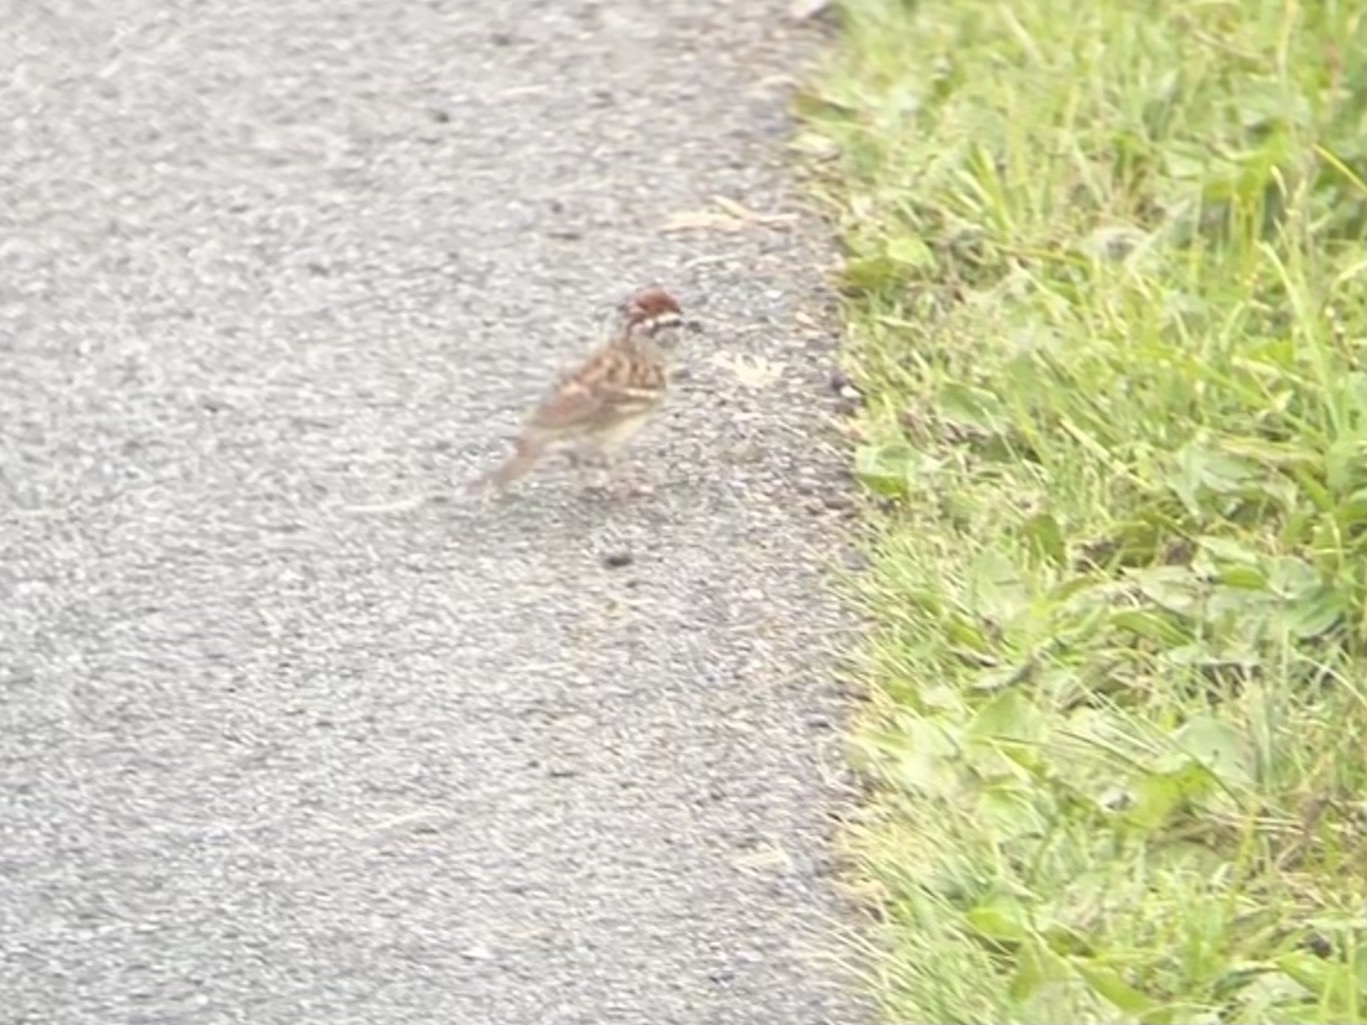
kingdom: Animalia
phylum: Chordata
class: Aves
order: Passeriformes
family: Passerellidae
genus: Spizella
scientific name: Spizella passerina
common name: Chipping sparrow
